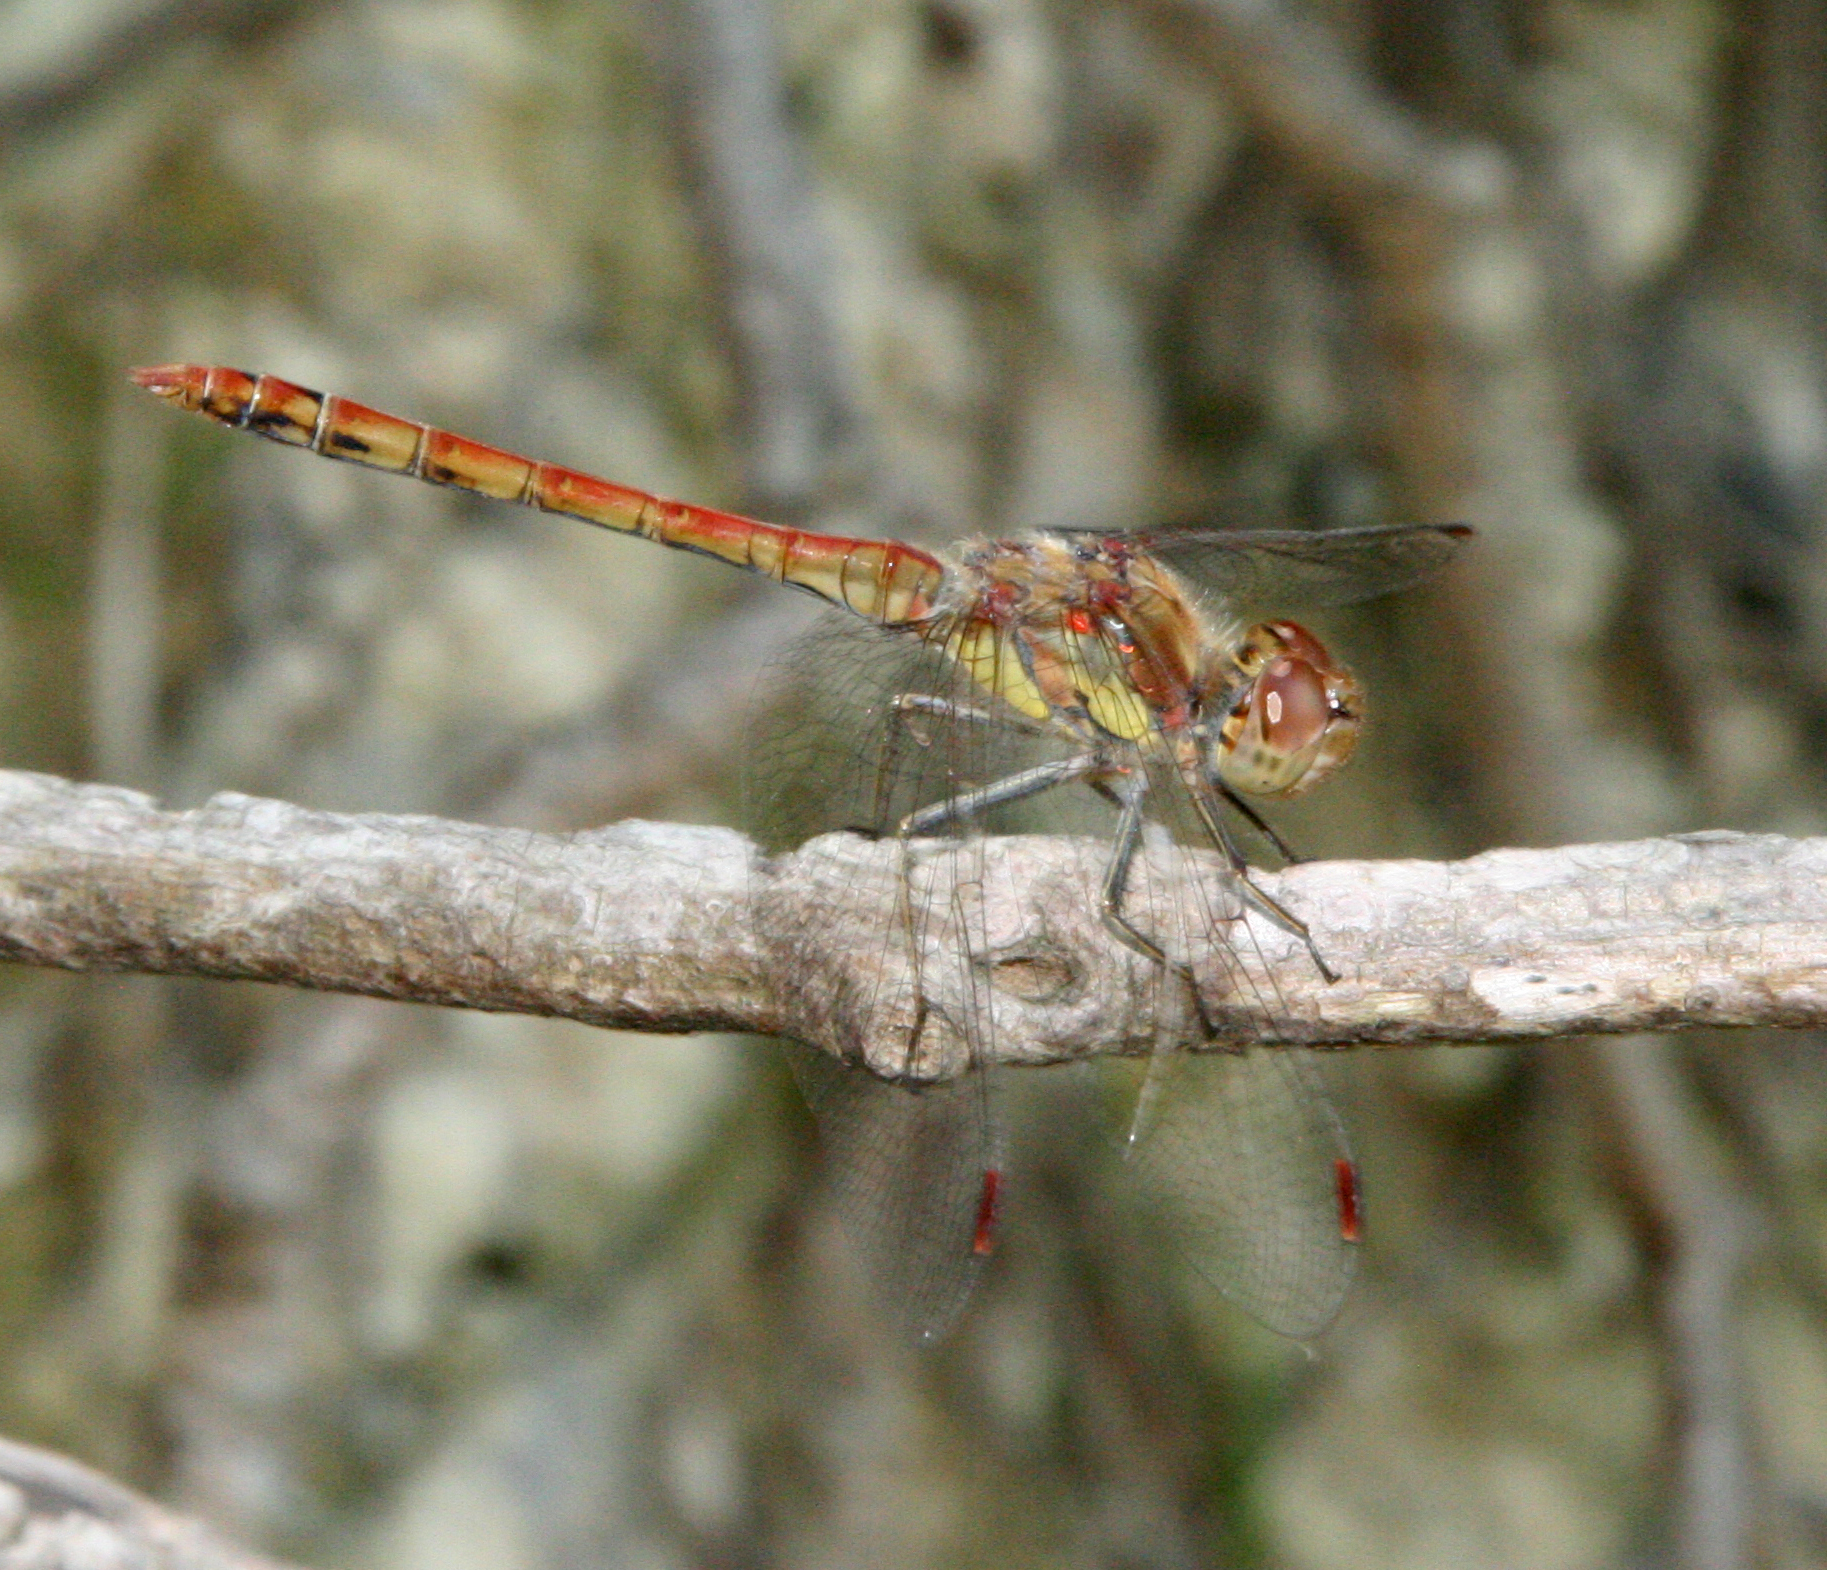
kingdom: Animalia
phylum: Arthropoda
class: Insecta
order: Odonata
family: Libellulidae
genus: Sympetrum
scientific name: Sympetrum striolatum
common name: Common darter
